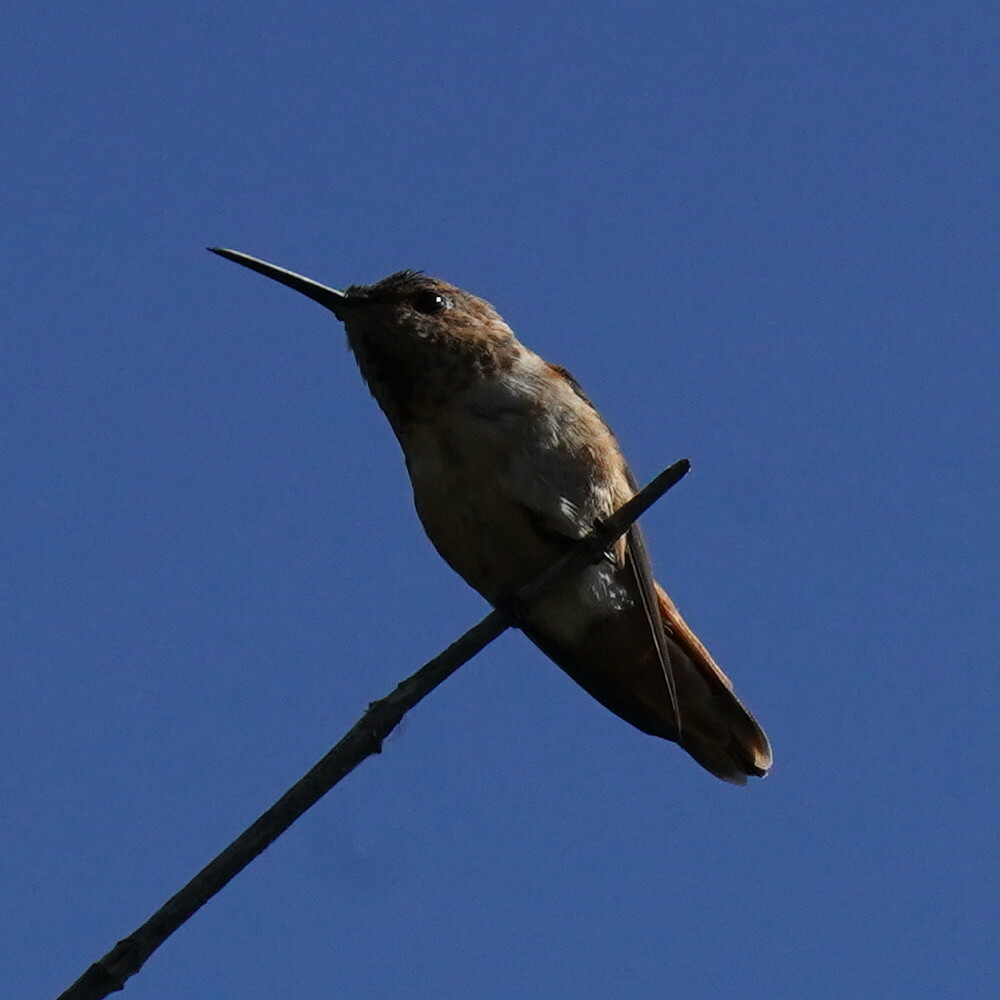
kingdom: Animalia
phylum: Chordata
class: Aves
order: Apodiformes
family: Trochilidae
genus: Selasphorus
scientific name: Selasphorus sasin
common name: Allen's hummingbird
